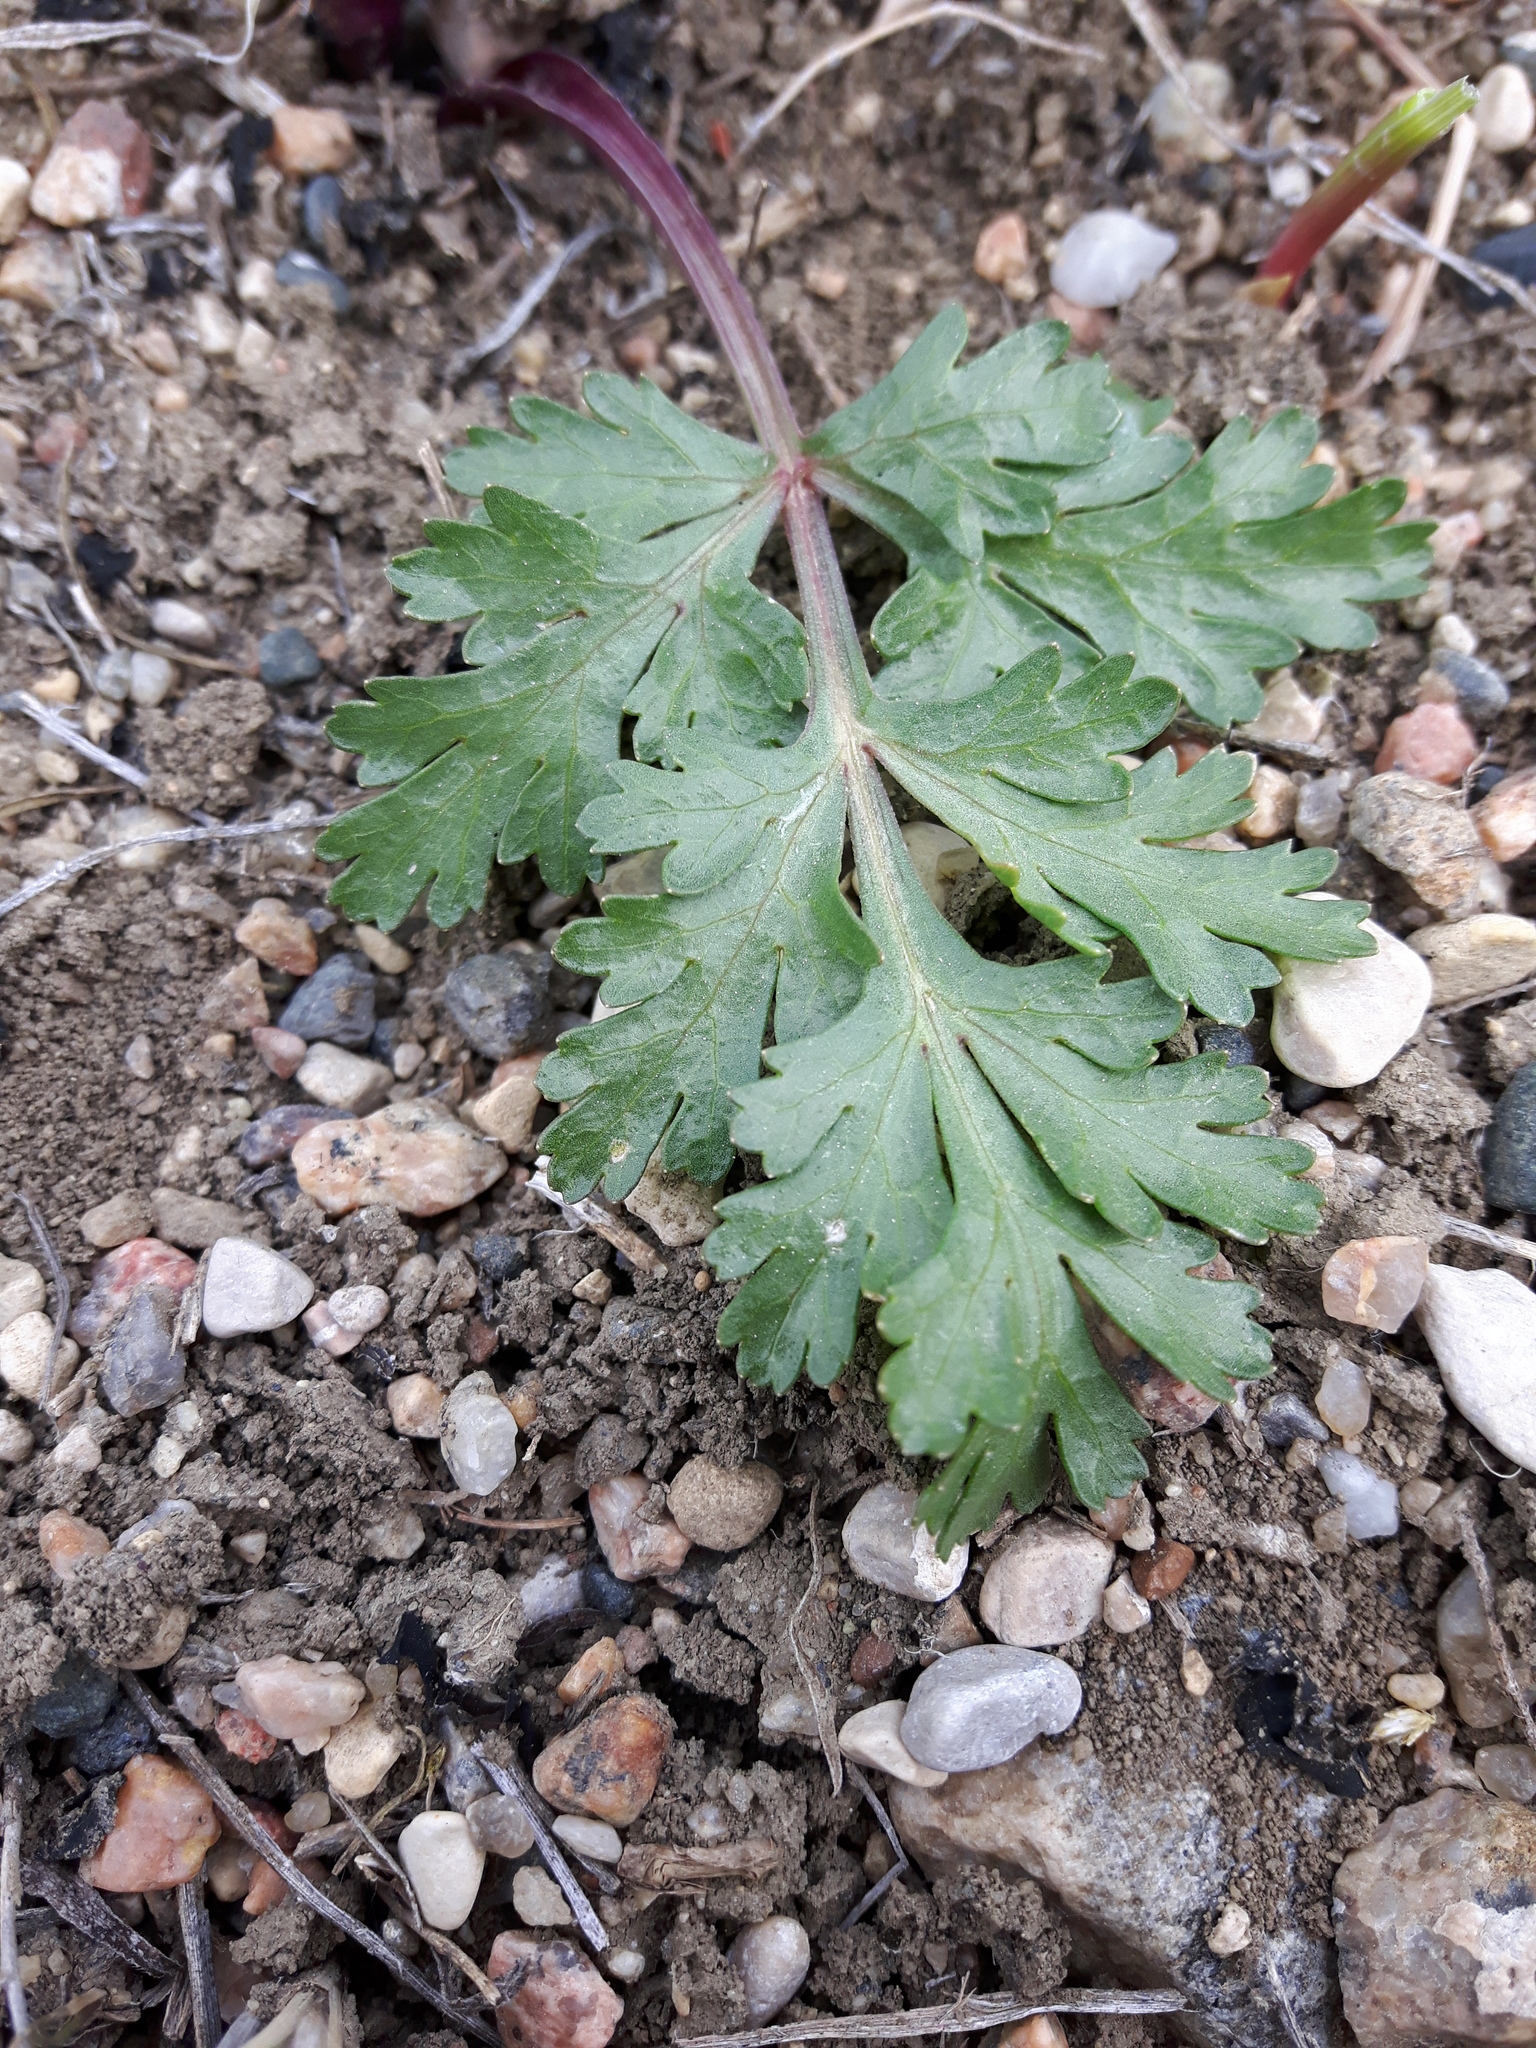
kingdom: Plantae
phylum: Tracheophyta
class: Magnoliopsida
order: Apiales
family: Apiaceae
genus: Musineon
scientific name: Musineon divaricatum
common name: Plains musineon
